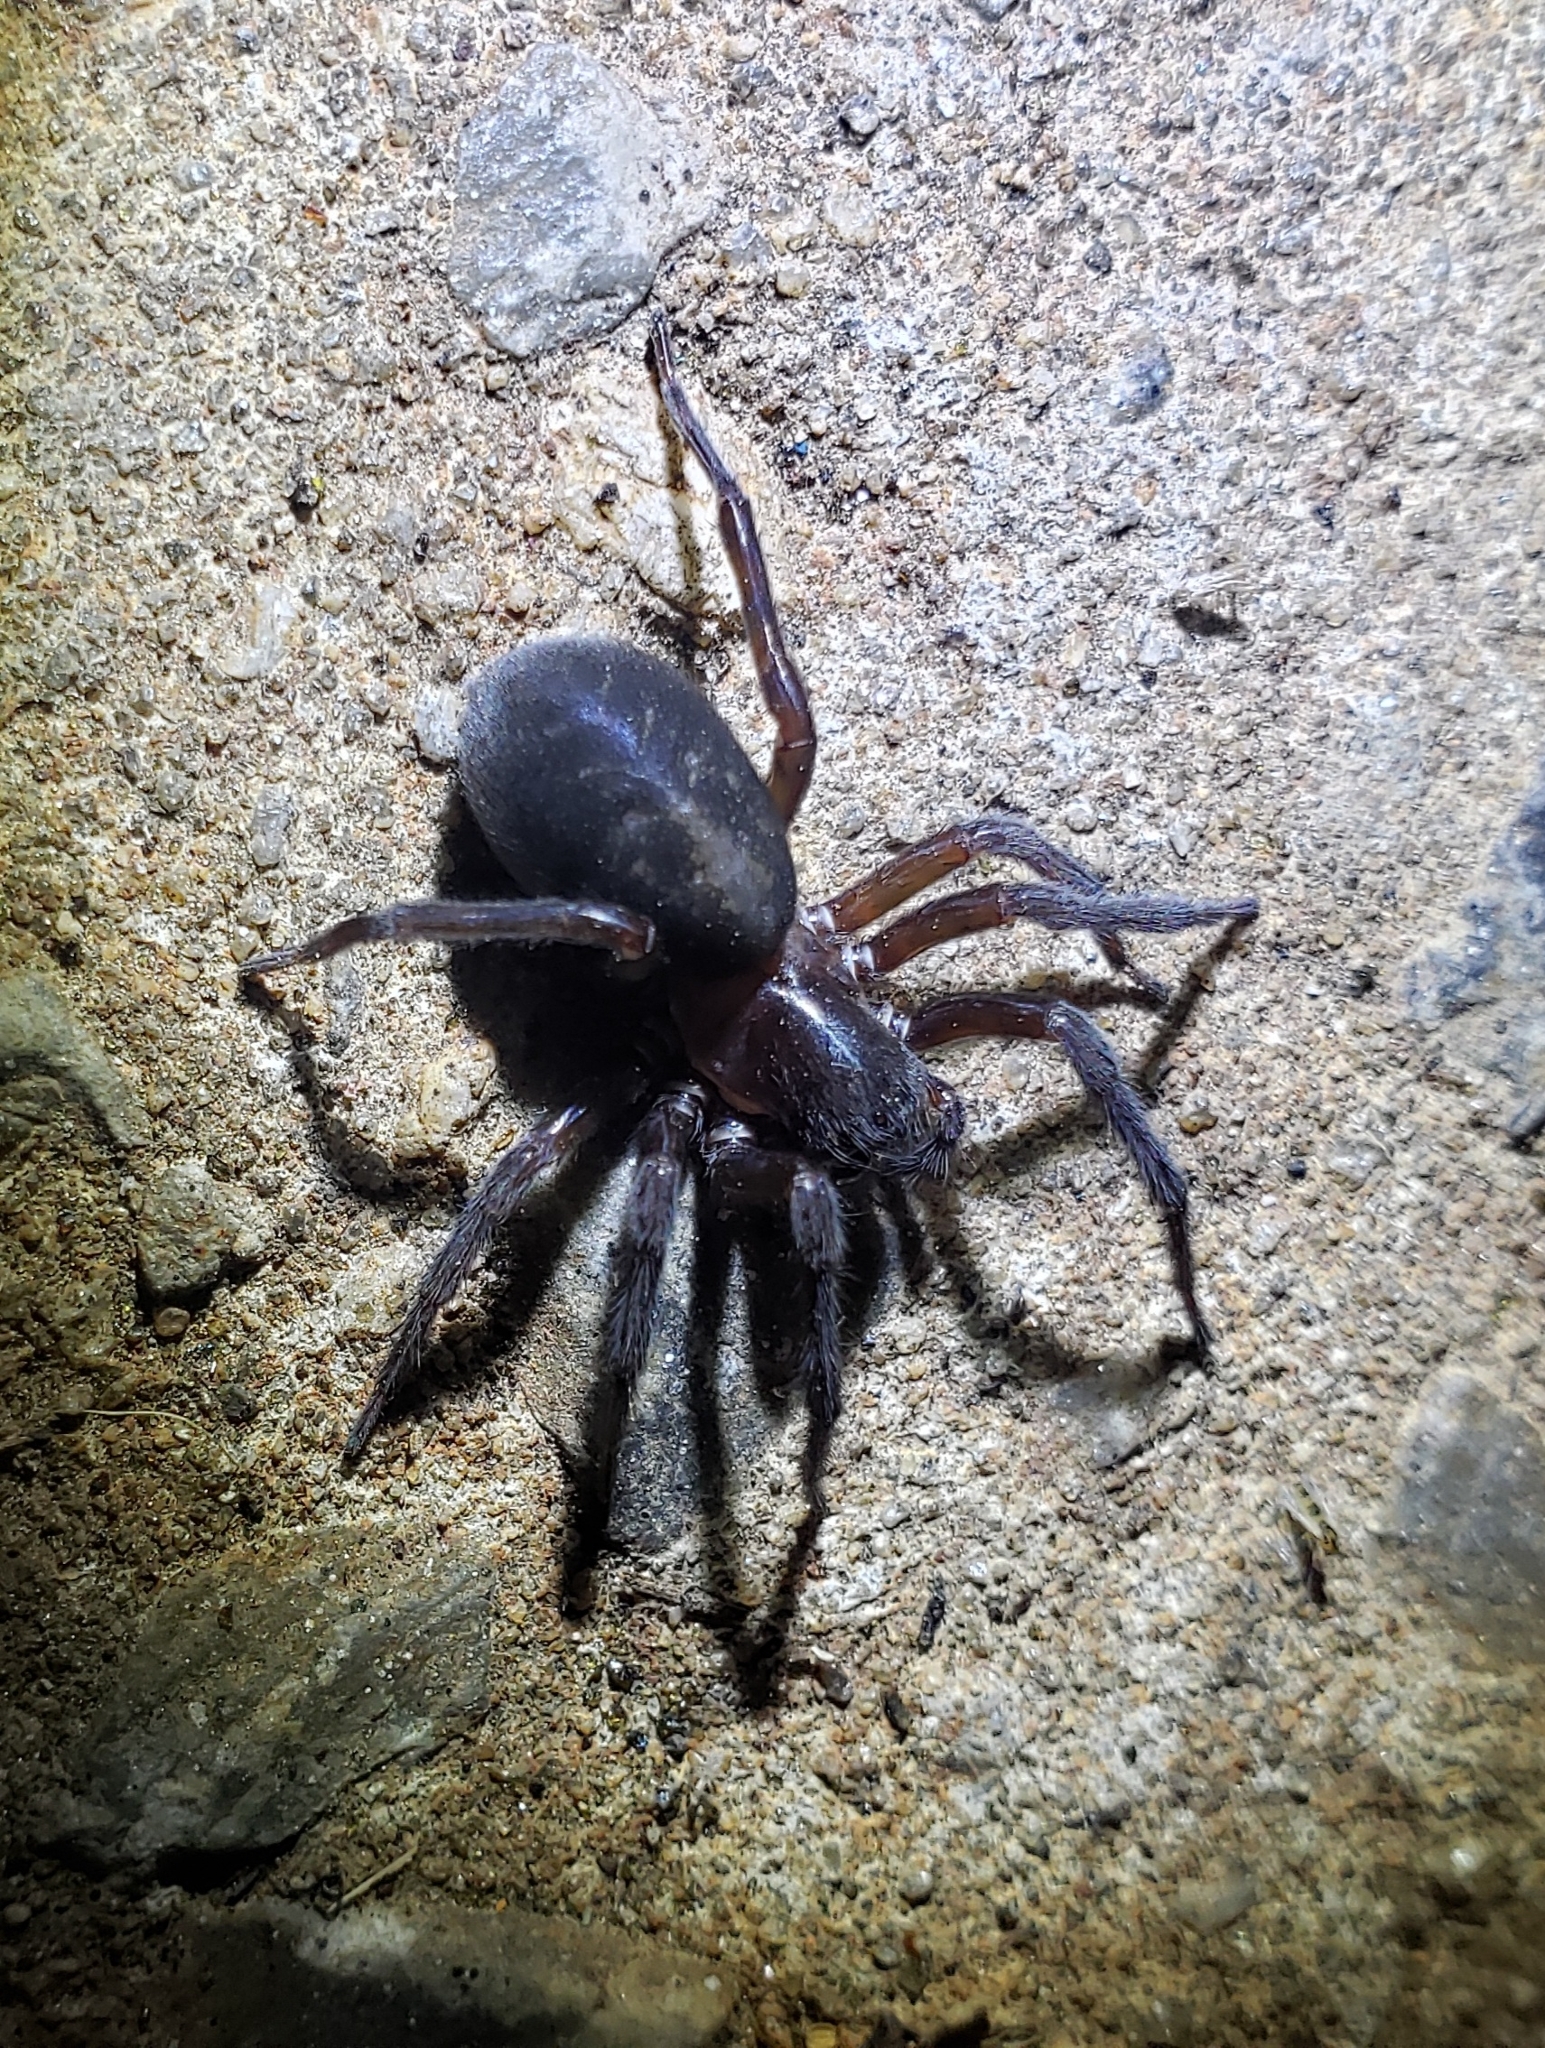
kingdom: Animalia
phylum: Arthropoda
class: Arachnida
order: Araneae
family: Amaurobiidae
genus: Amaurobius
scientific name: Amaurobius ferox
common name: Black laceweaver
